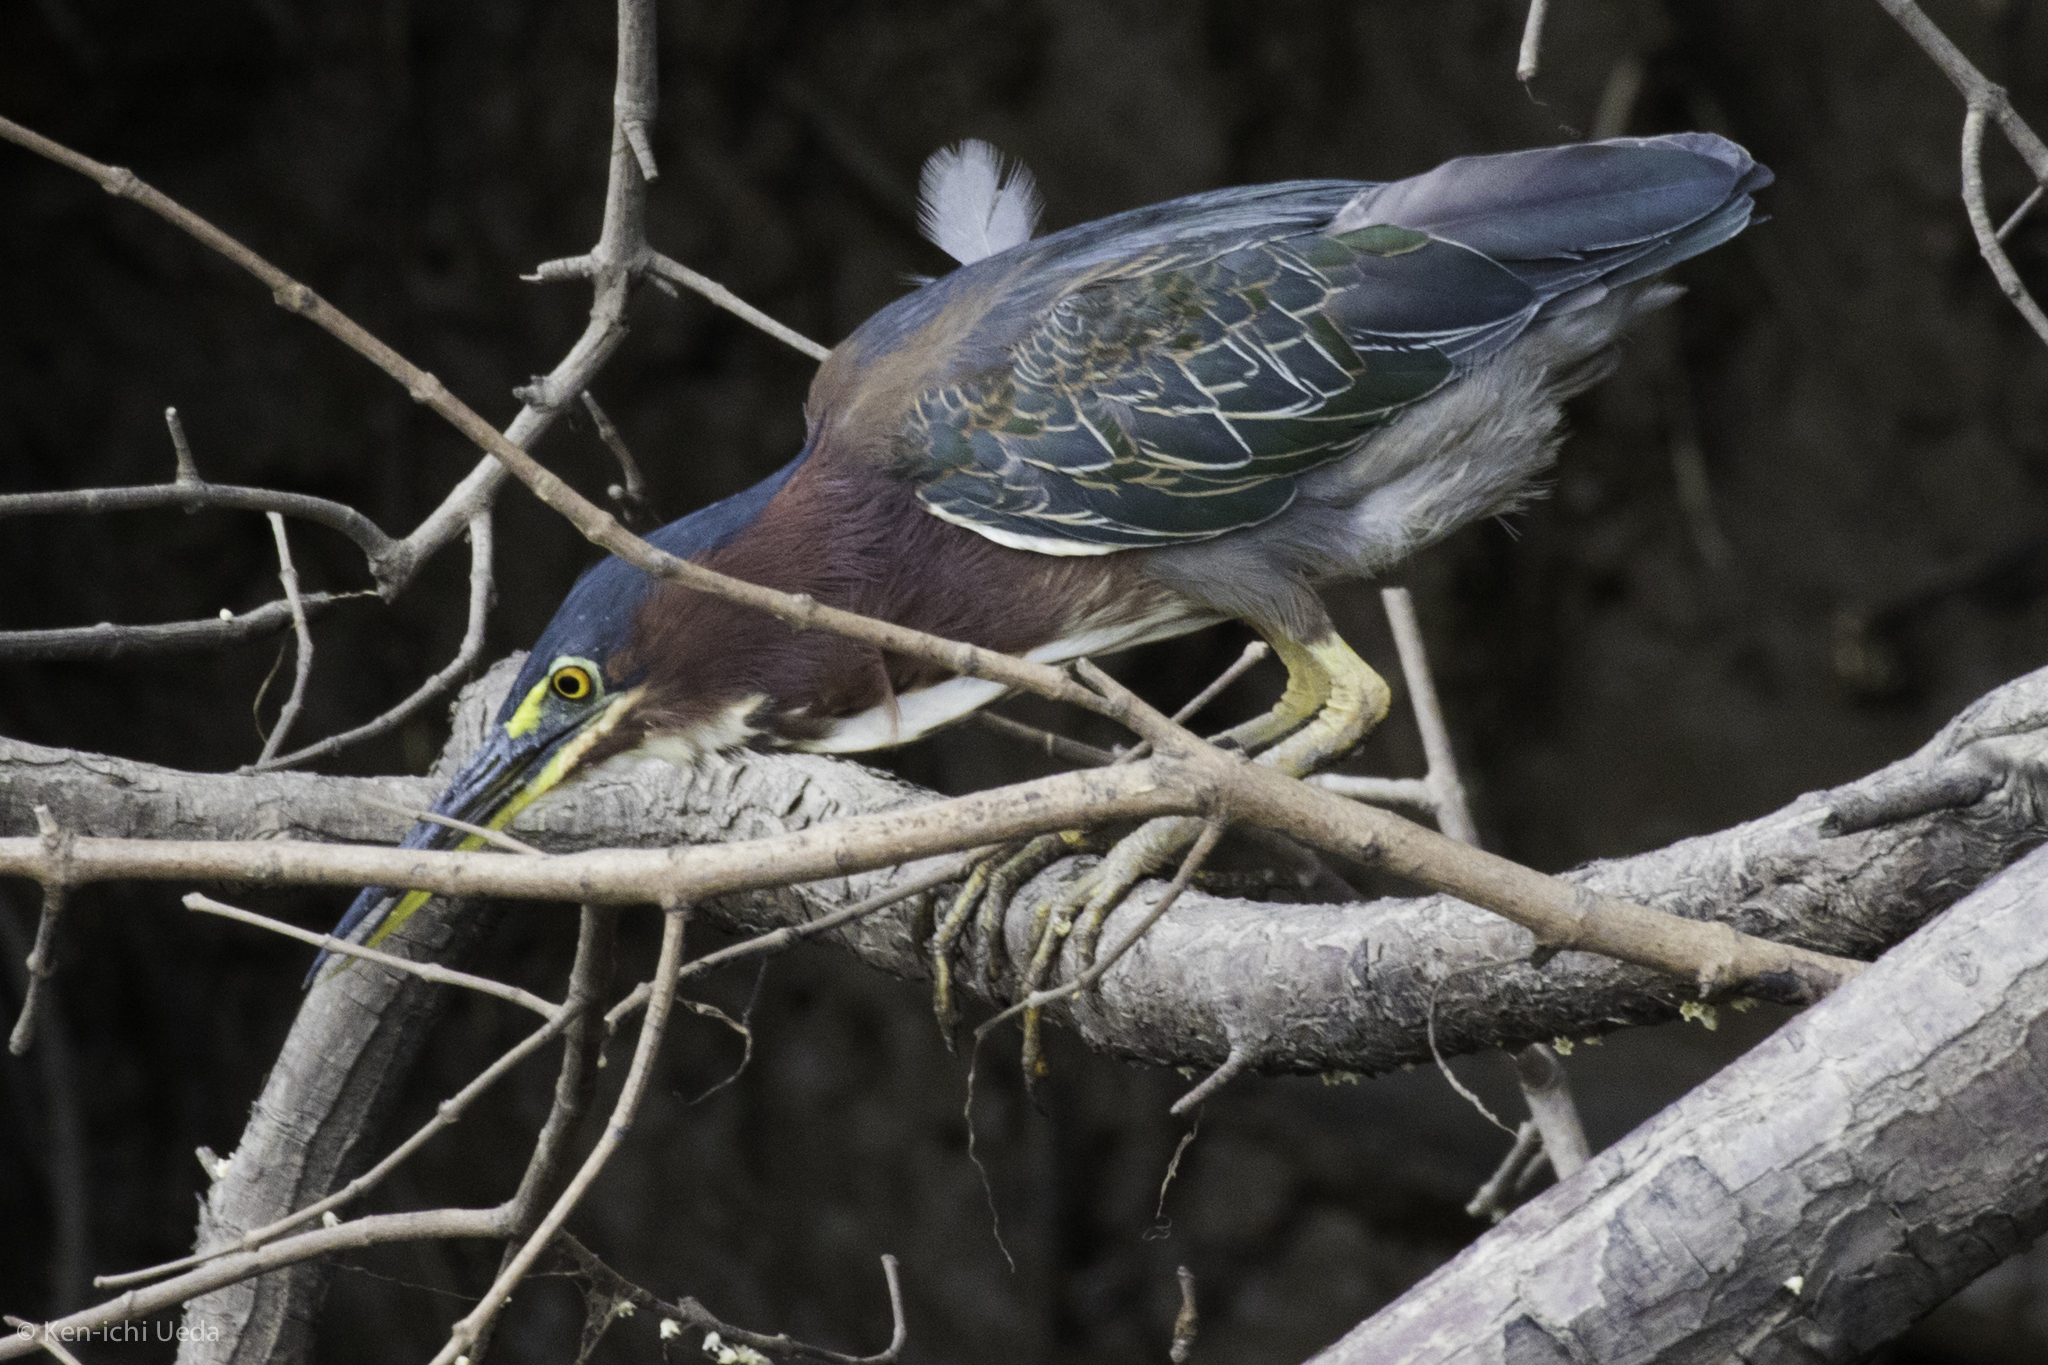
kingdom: Animalia
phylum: Chordata
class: Aves
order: Pelecaniformes
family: Ardeidae
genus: Butorides
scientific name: Butorides virescens
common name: Green heron
